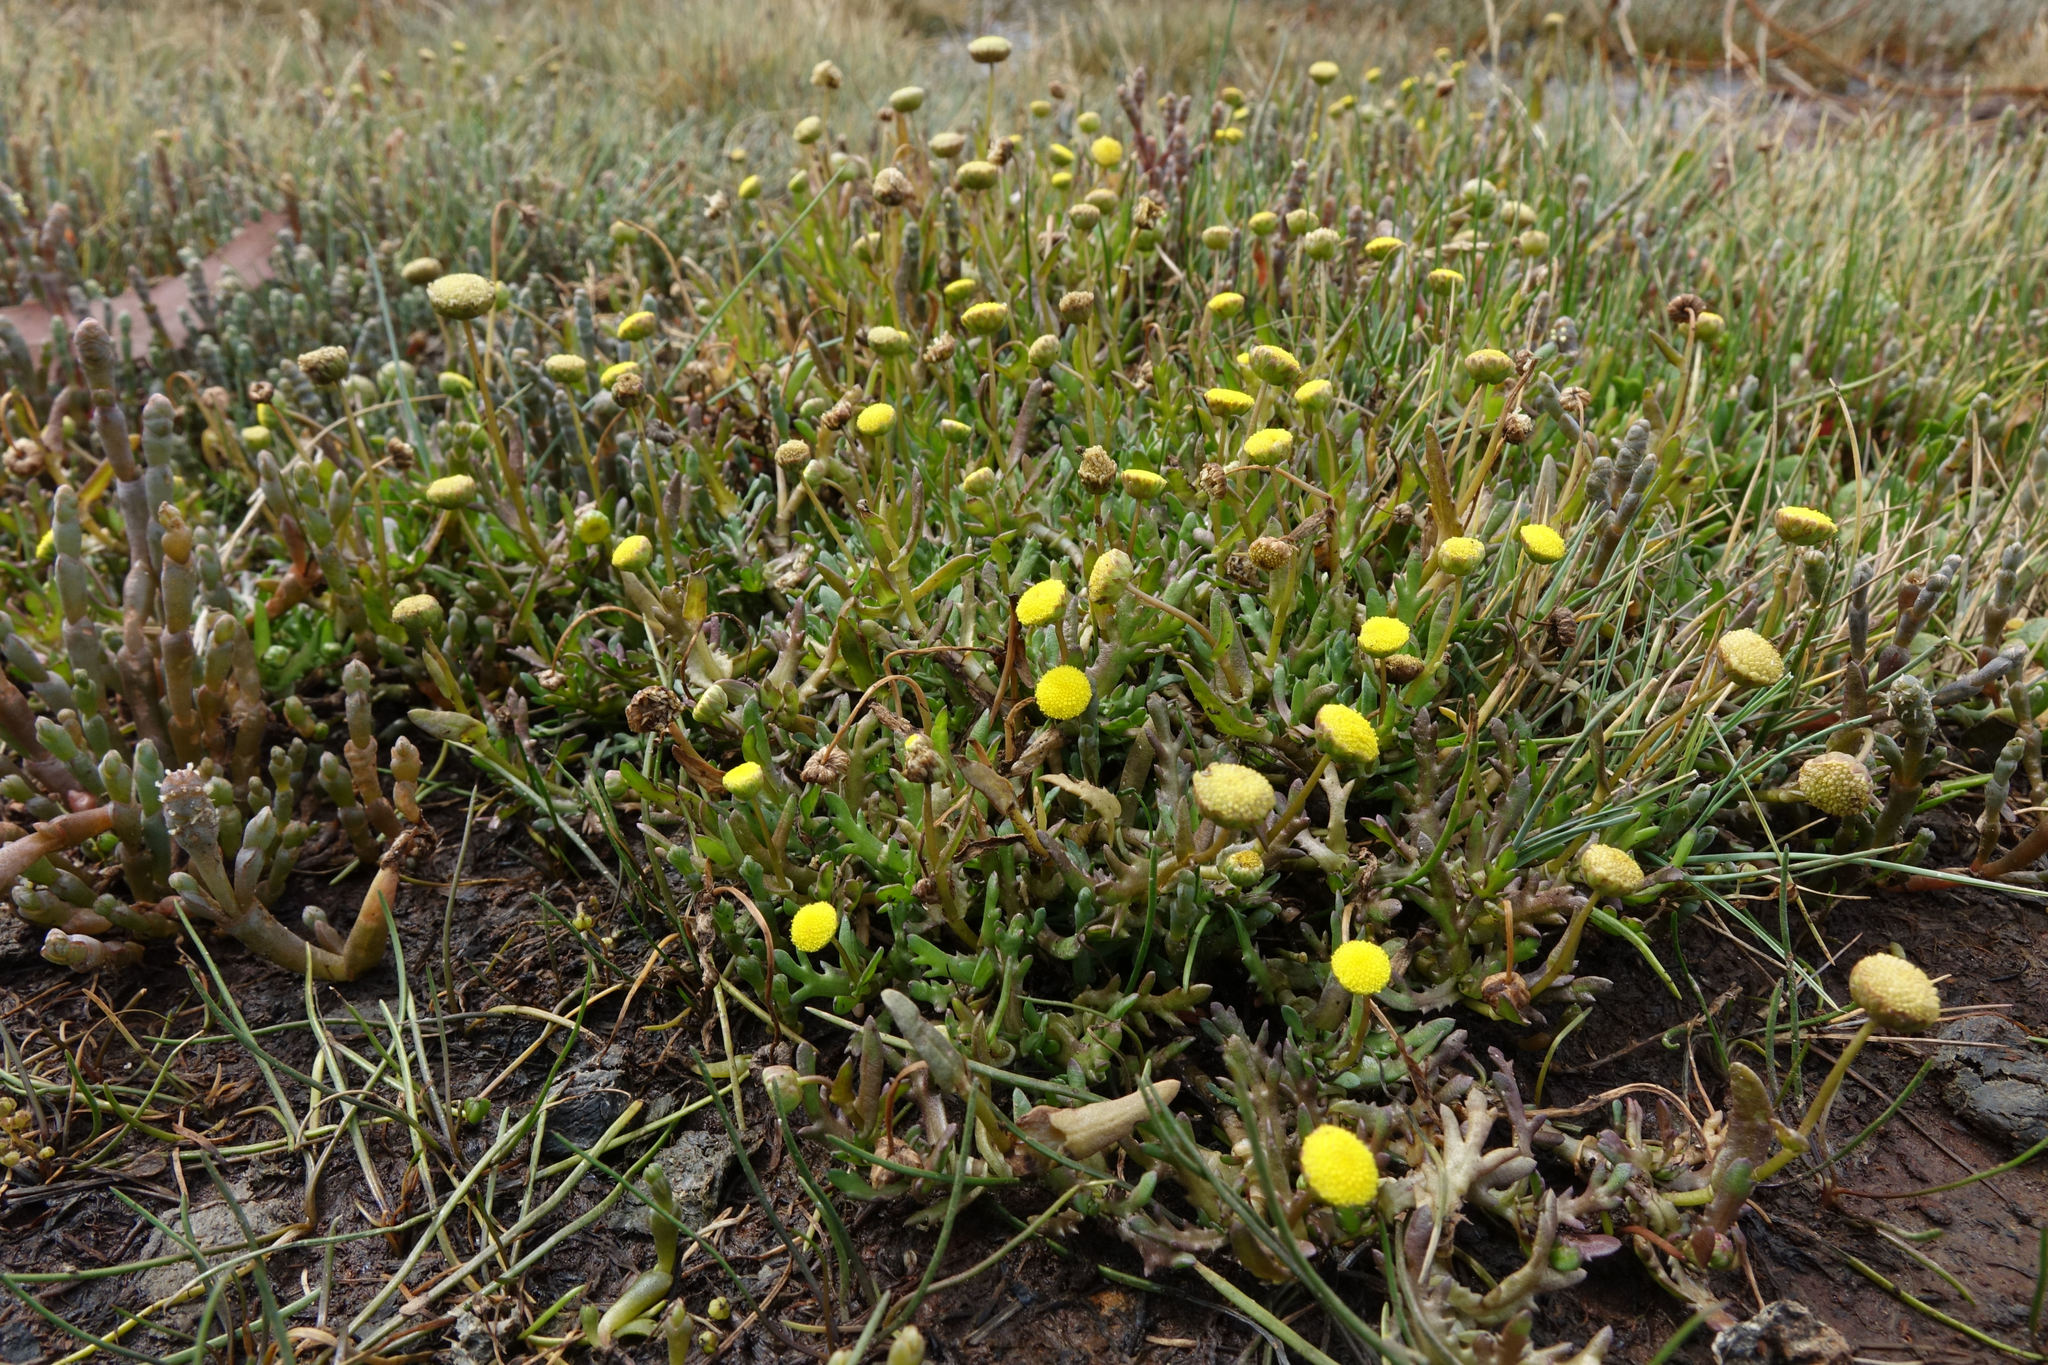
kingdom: Plantae
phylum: Tracheophyta
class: Magnoliopsida
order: Asterales
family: Asteraceae
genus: Cotula
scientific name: Cotula coronopifolia
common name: Buttonweed
